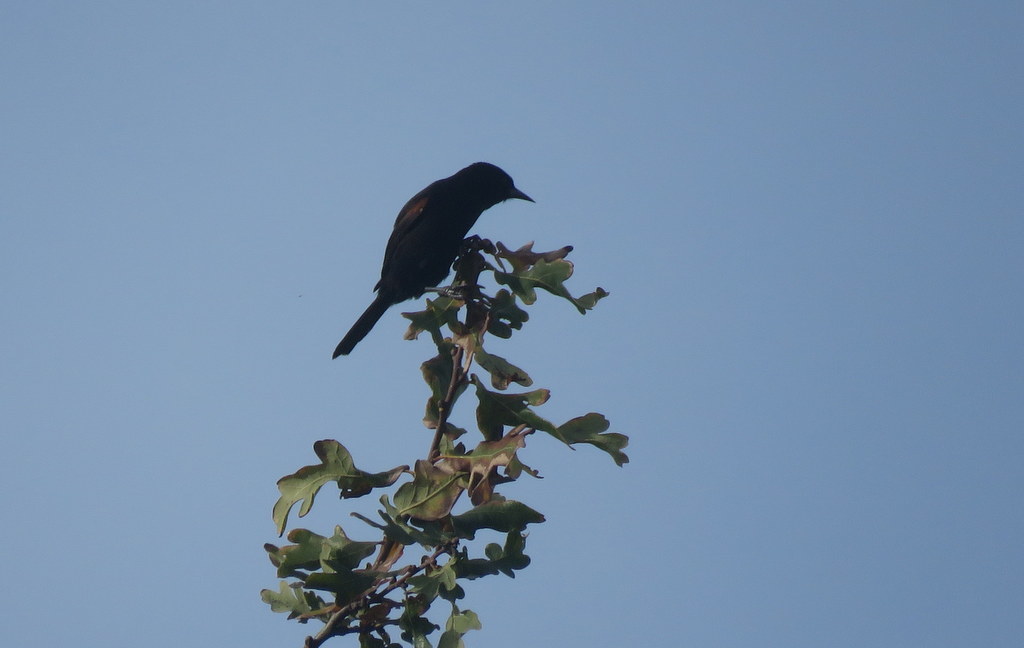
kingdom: Animalia
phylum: Chordata
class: Aves
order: Passeriformes
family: Icteridae
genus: Icterus
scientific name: Icterus cayanensis
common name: Epaulet oriole
